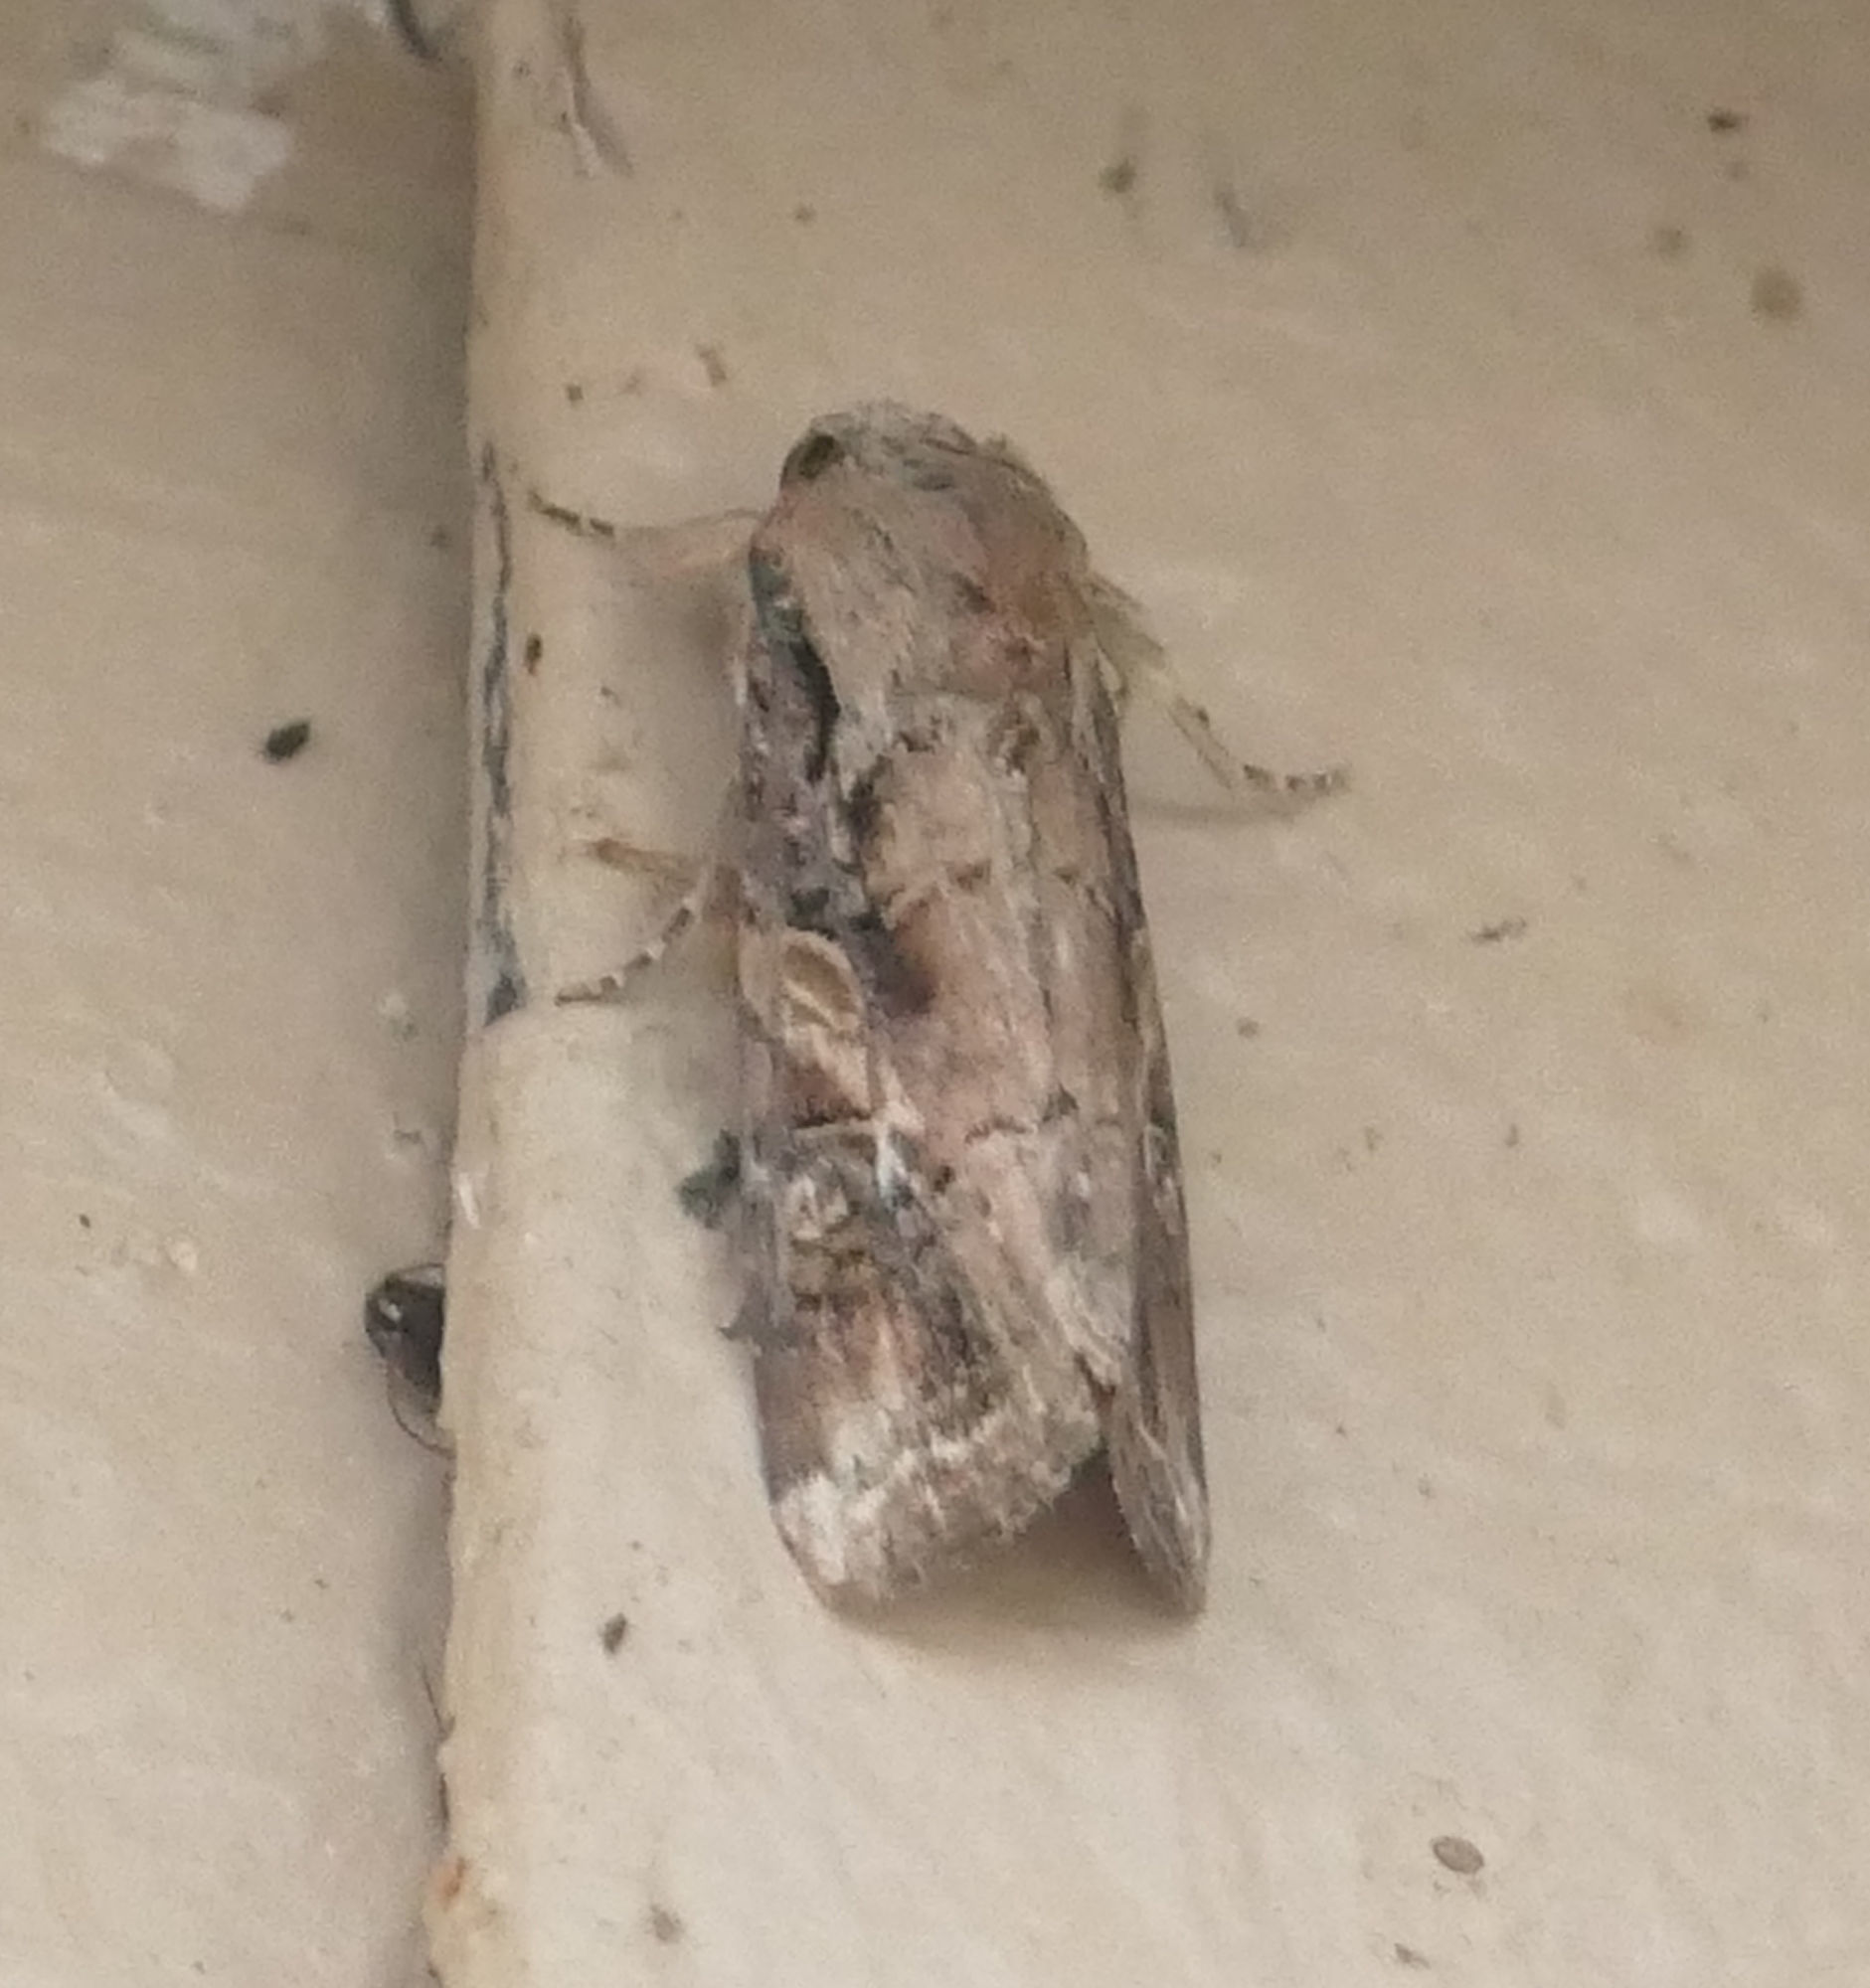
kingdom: Animalia
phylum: Arthropoda
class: Insecta
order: Lepidoptera
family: Noctuidae
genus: Spodoptera
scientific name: Spodoptera frugiperda
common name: Fall armyworm
